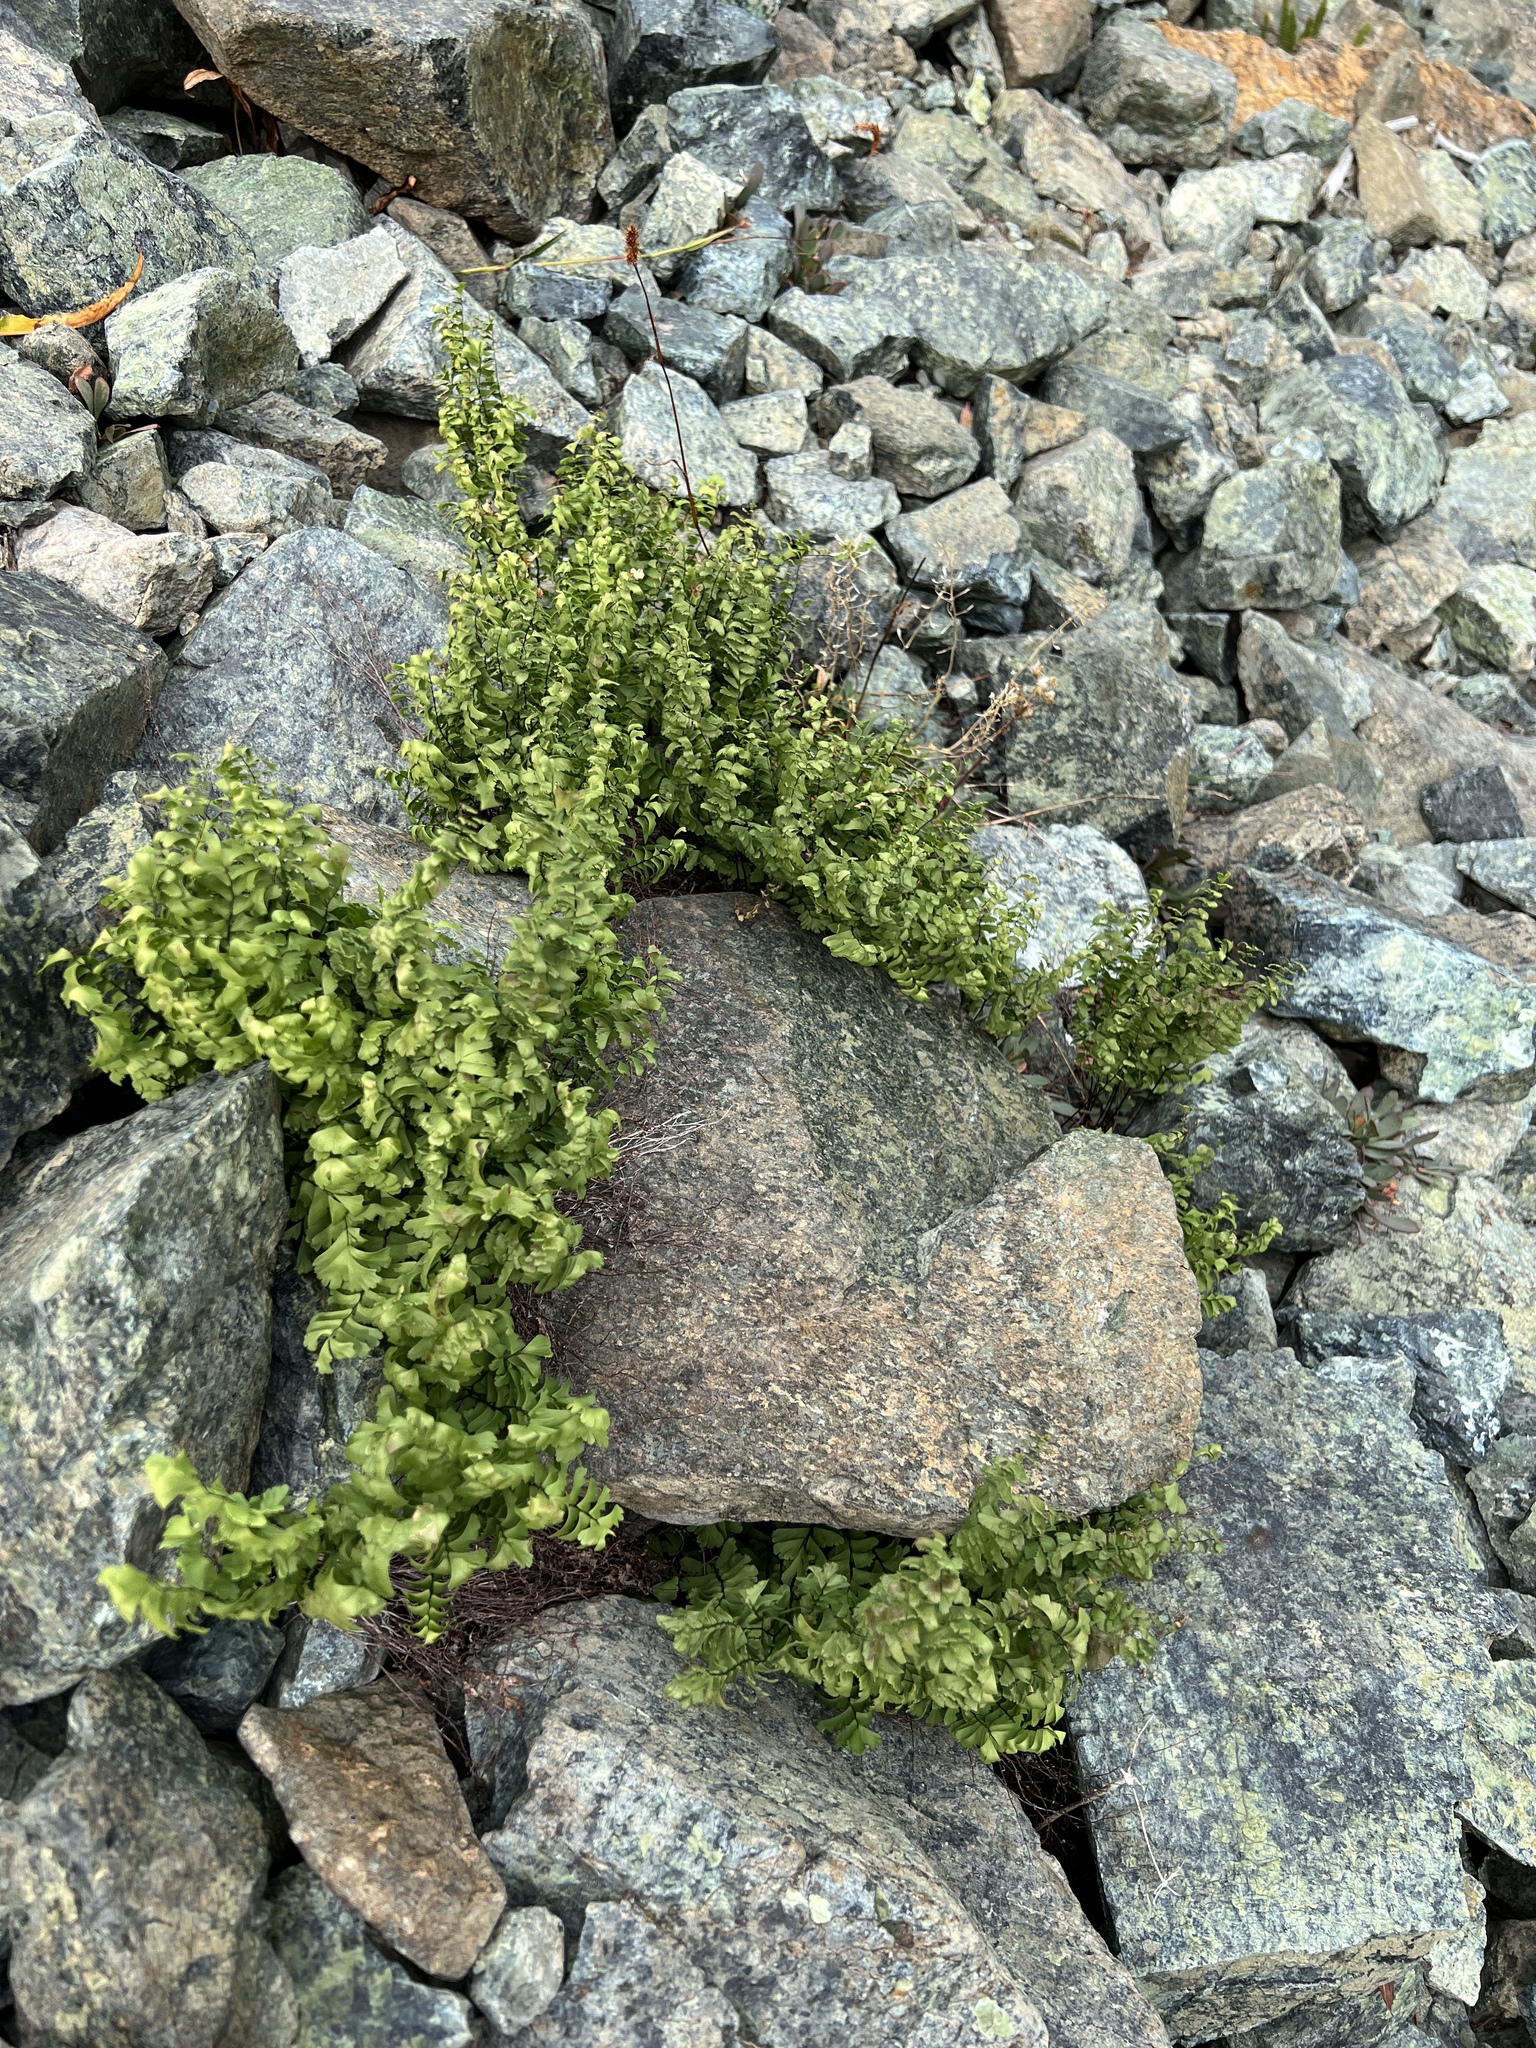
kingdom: Plantae
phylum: Tracheophyta
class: Polypodiopsida
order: Polypodiales
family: Pteridaceae
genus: Adiantum
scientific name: Adiantum aleuticum
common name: Aleutian maidenhair fern
